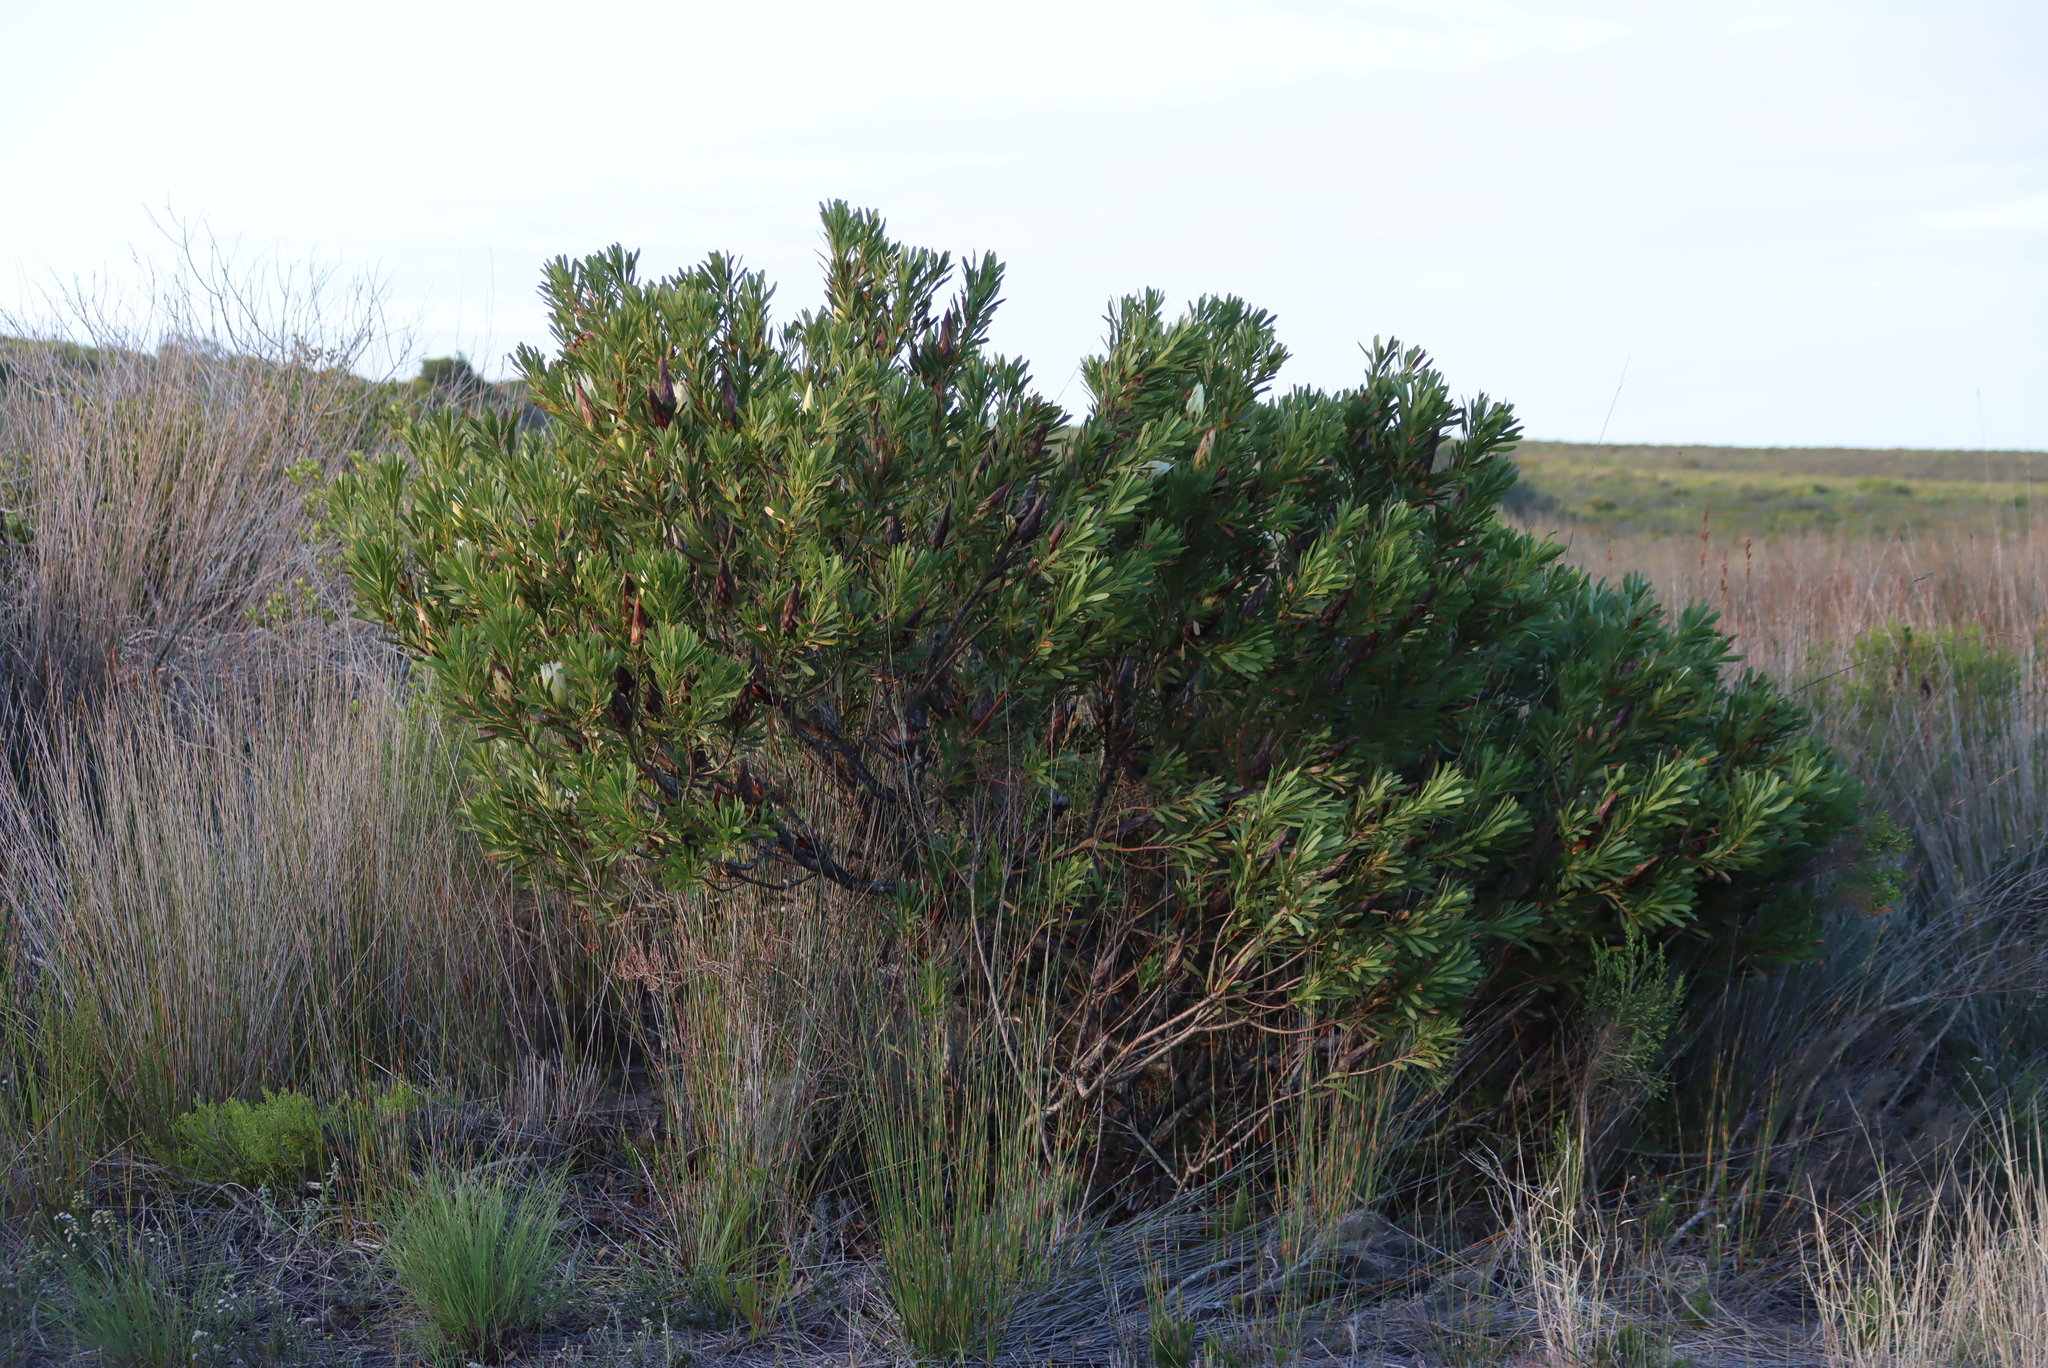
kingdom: Plantae
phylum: Tracheophyta
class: Magnoliopsida
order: Proteales
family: Proteaceae
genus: Protea
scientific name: Protea repens
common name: Sugarbush
